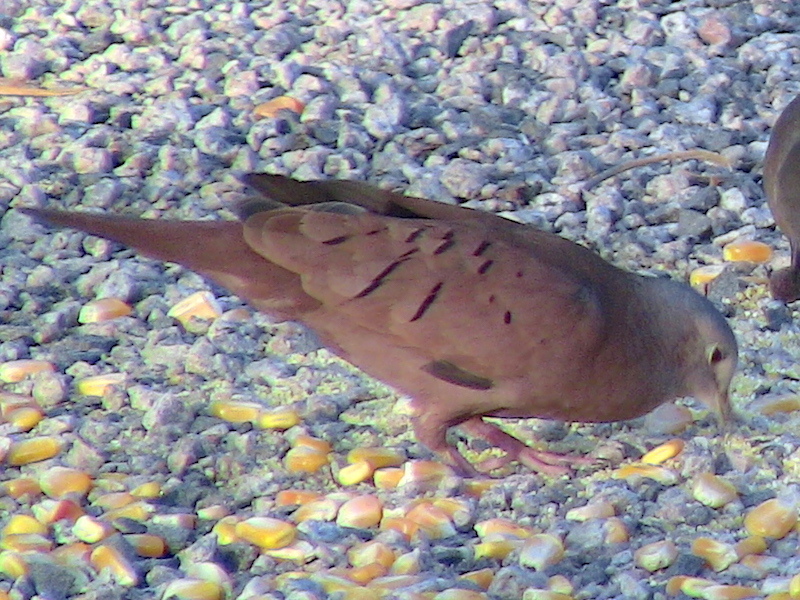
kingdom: Animalia
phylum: Chordata
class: Aves
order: Columbiformes
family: Columbidae
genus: Columbina
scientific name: Columbina talpacoti
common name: Ruddy ground dove
